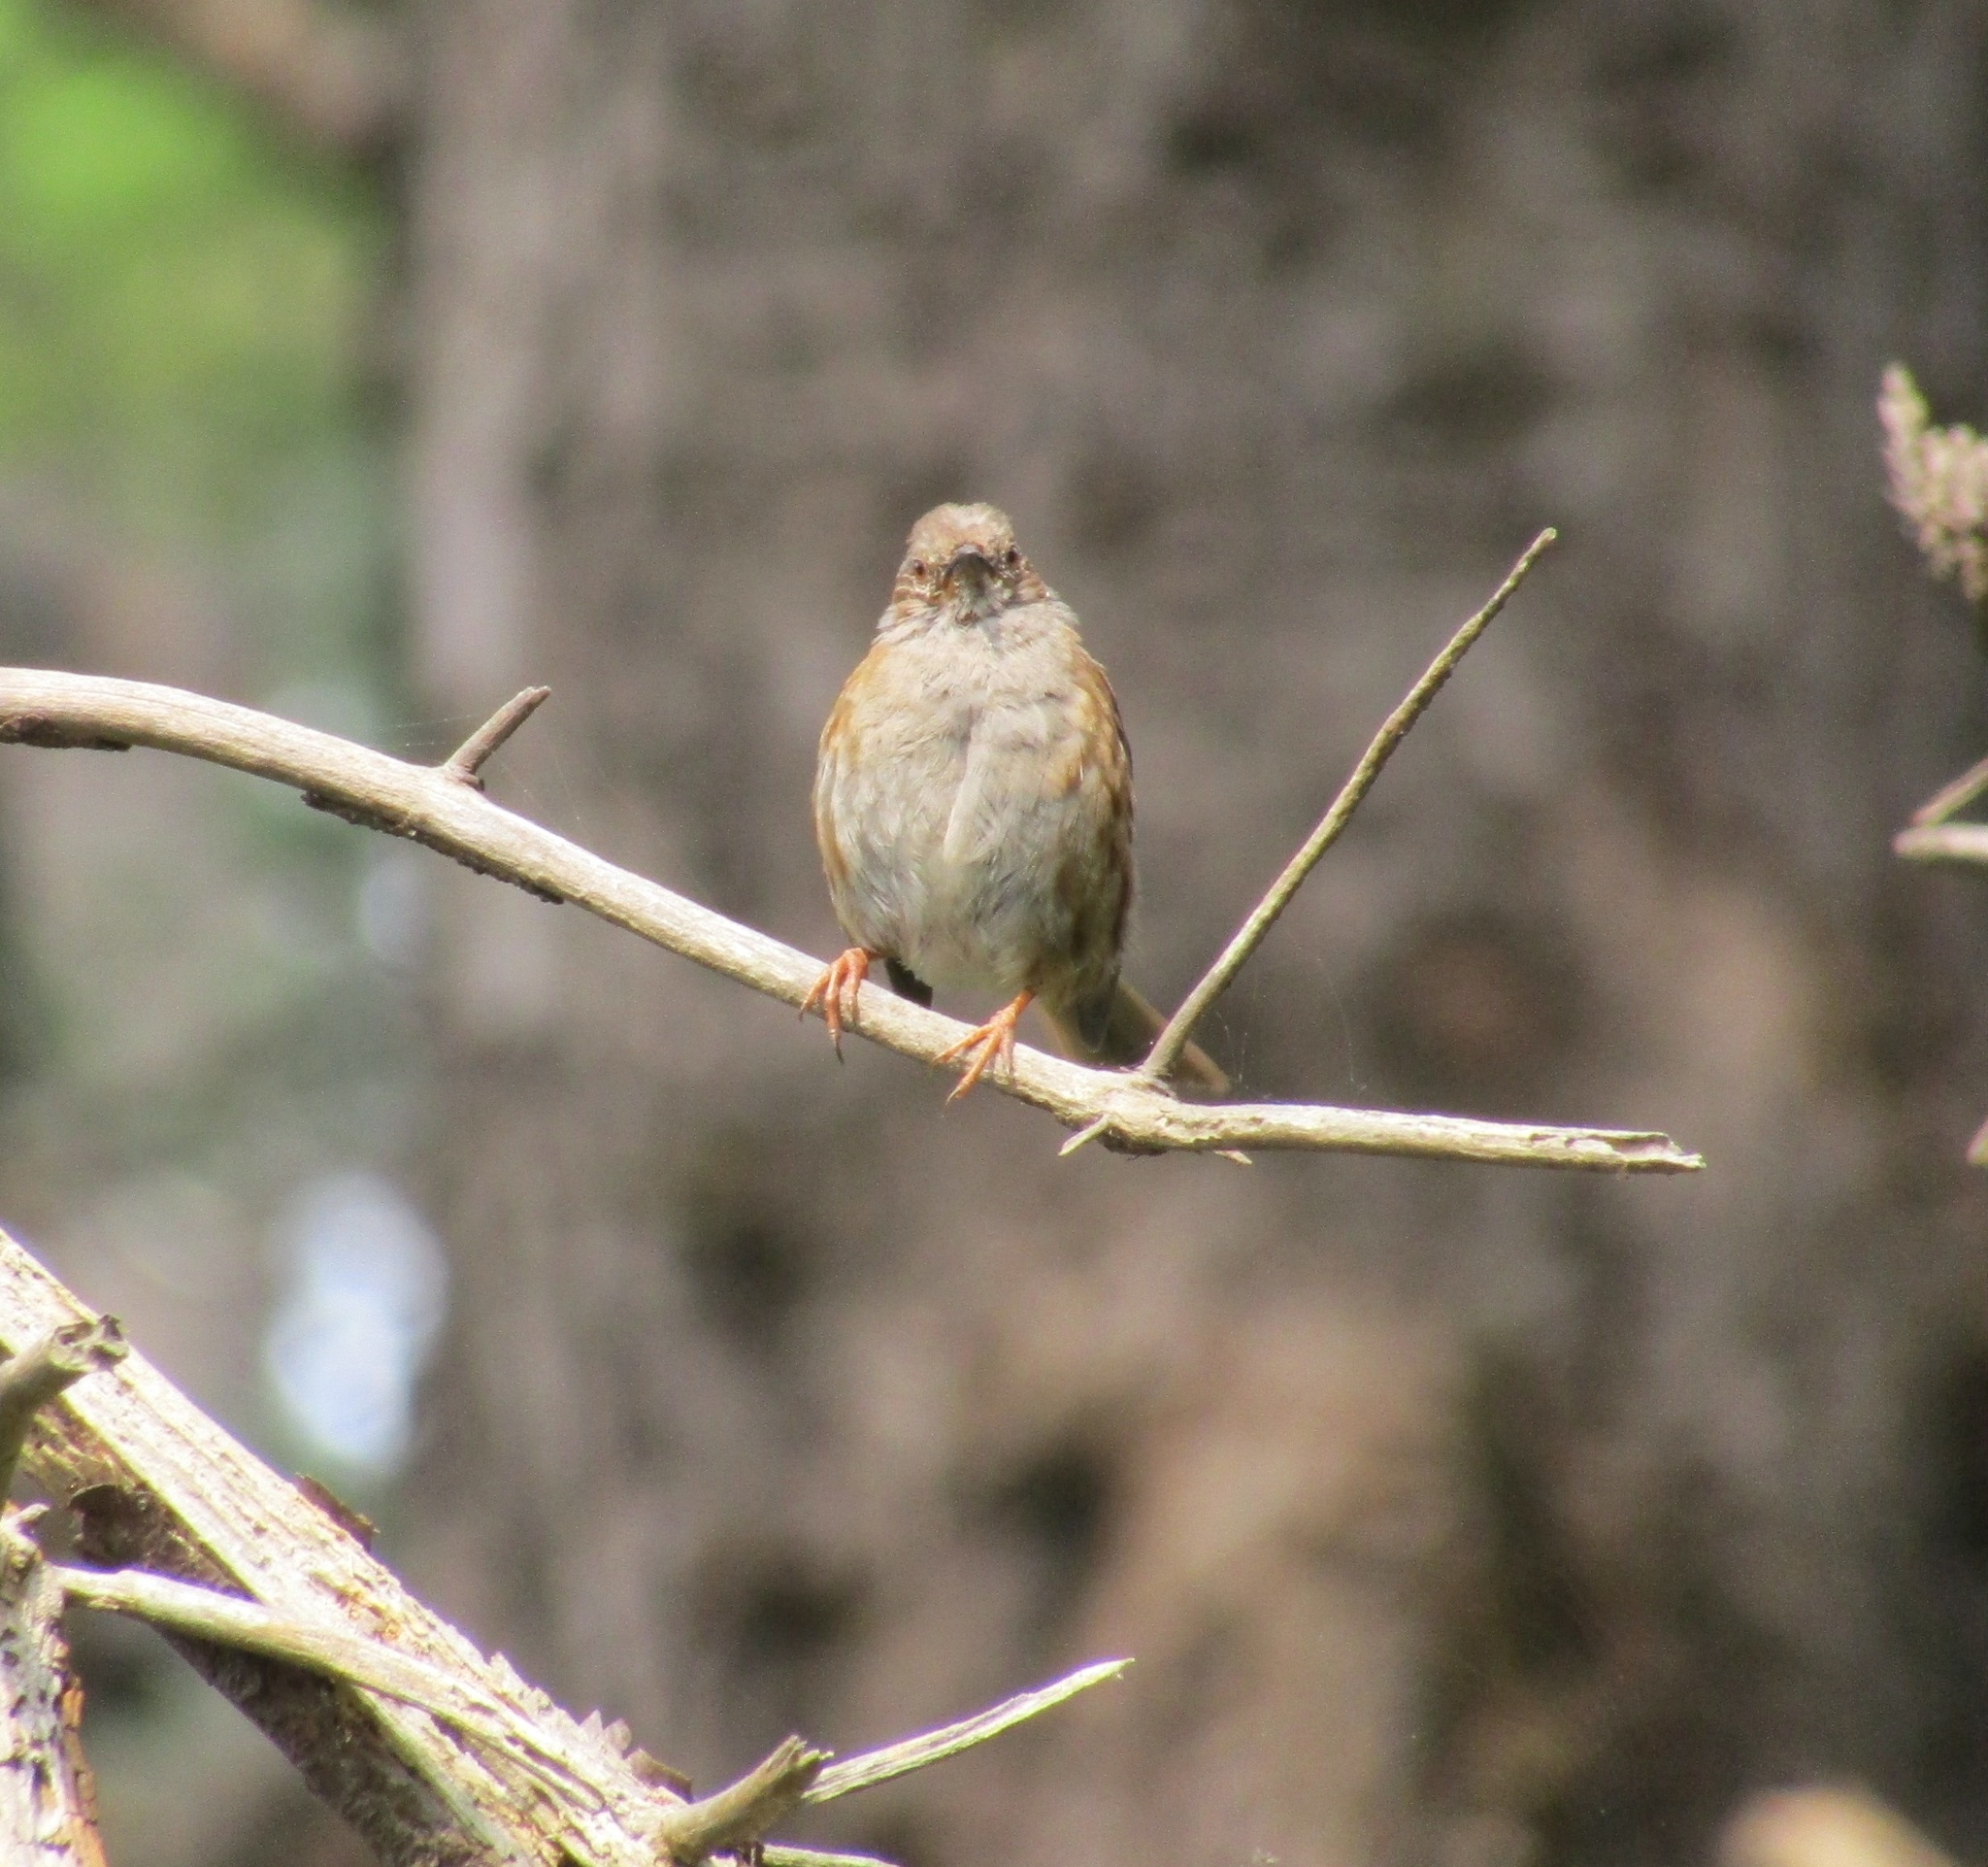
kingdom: Animalia
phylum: Chordata
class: Aves
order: Passeriformes
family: Prunellidae
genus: Prunella
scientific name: Prunella modularis
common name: Dunnock
